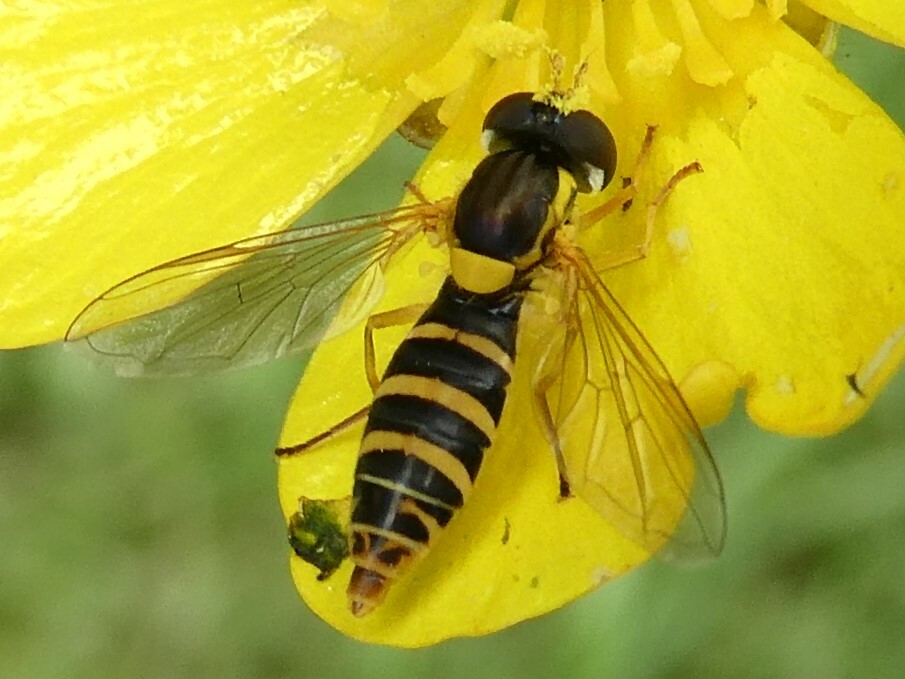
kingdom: Animalia
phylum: Arthropoda
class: Insecta
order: Diptera
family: Syrphidae
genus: Sphaerophoria
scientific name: Sphaerophoria
